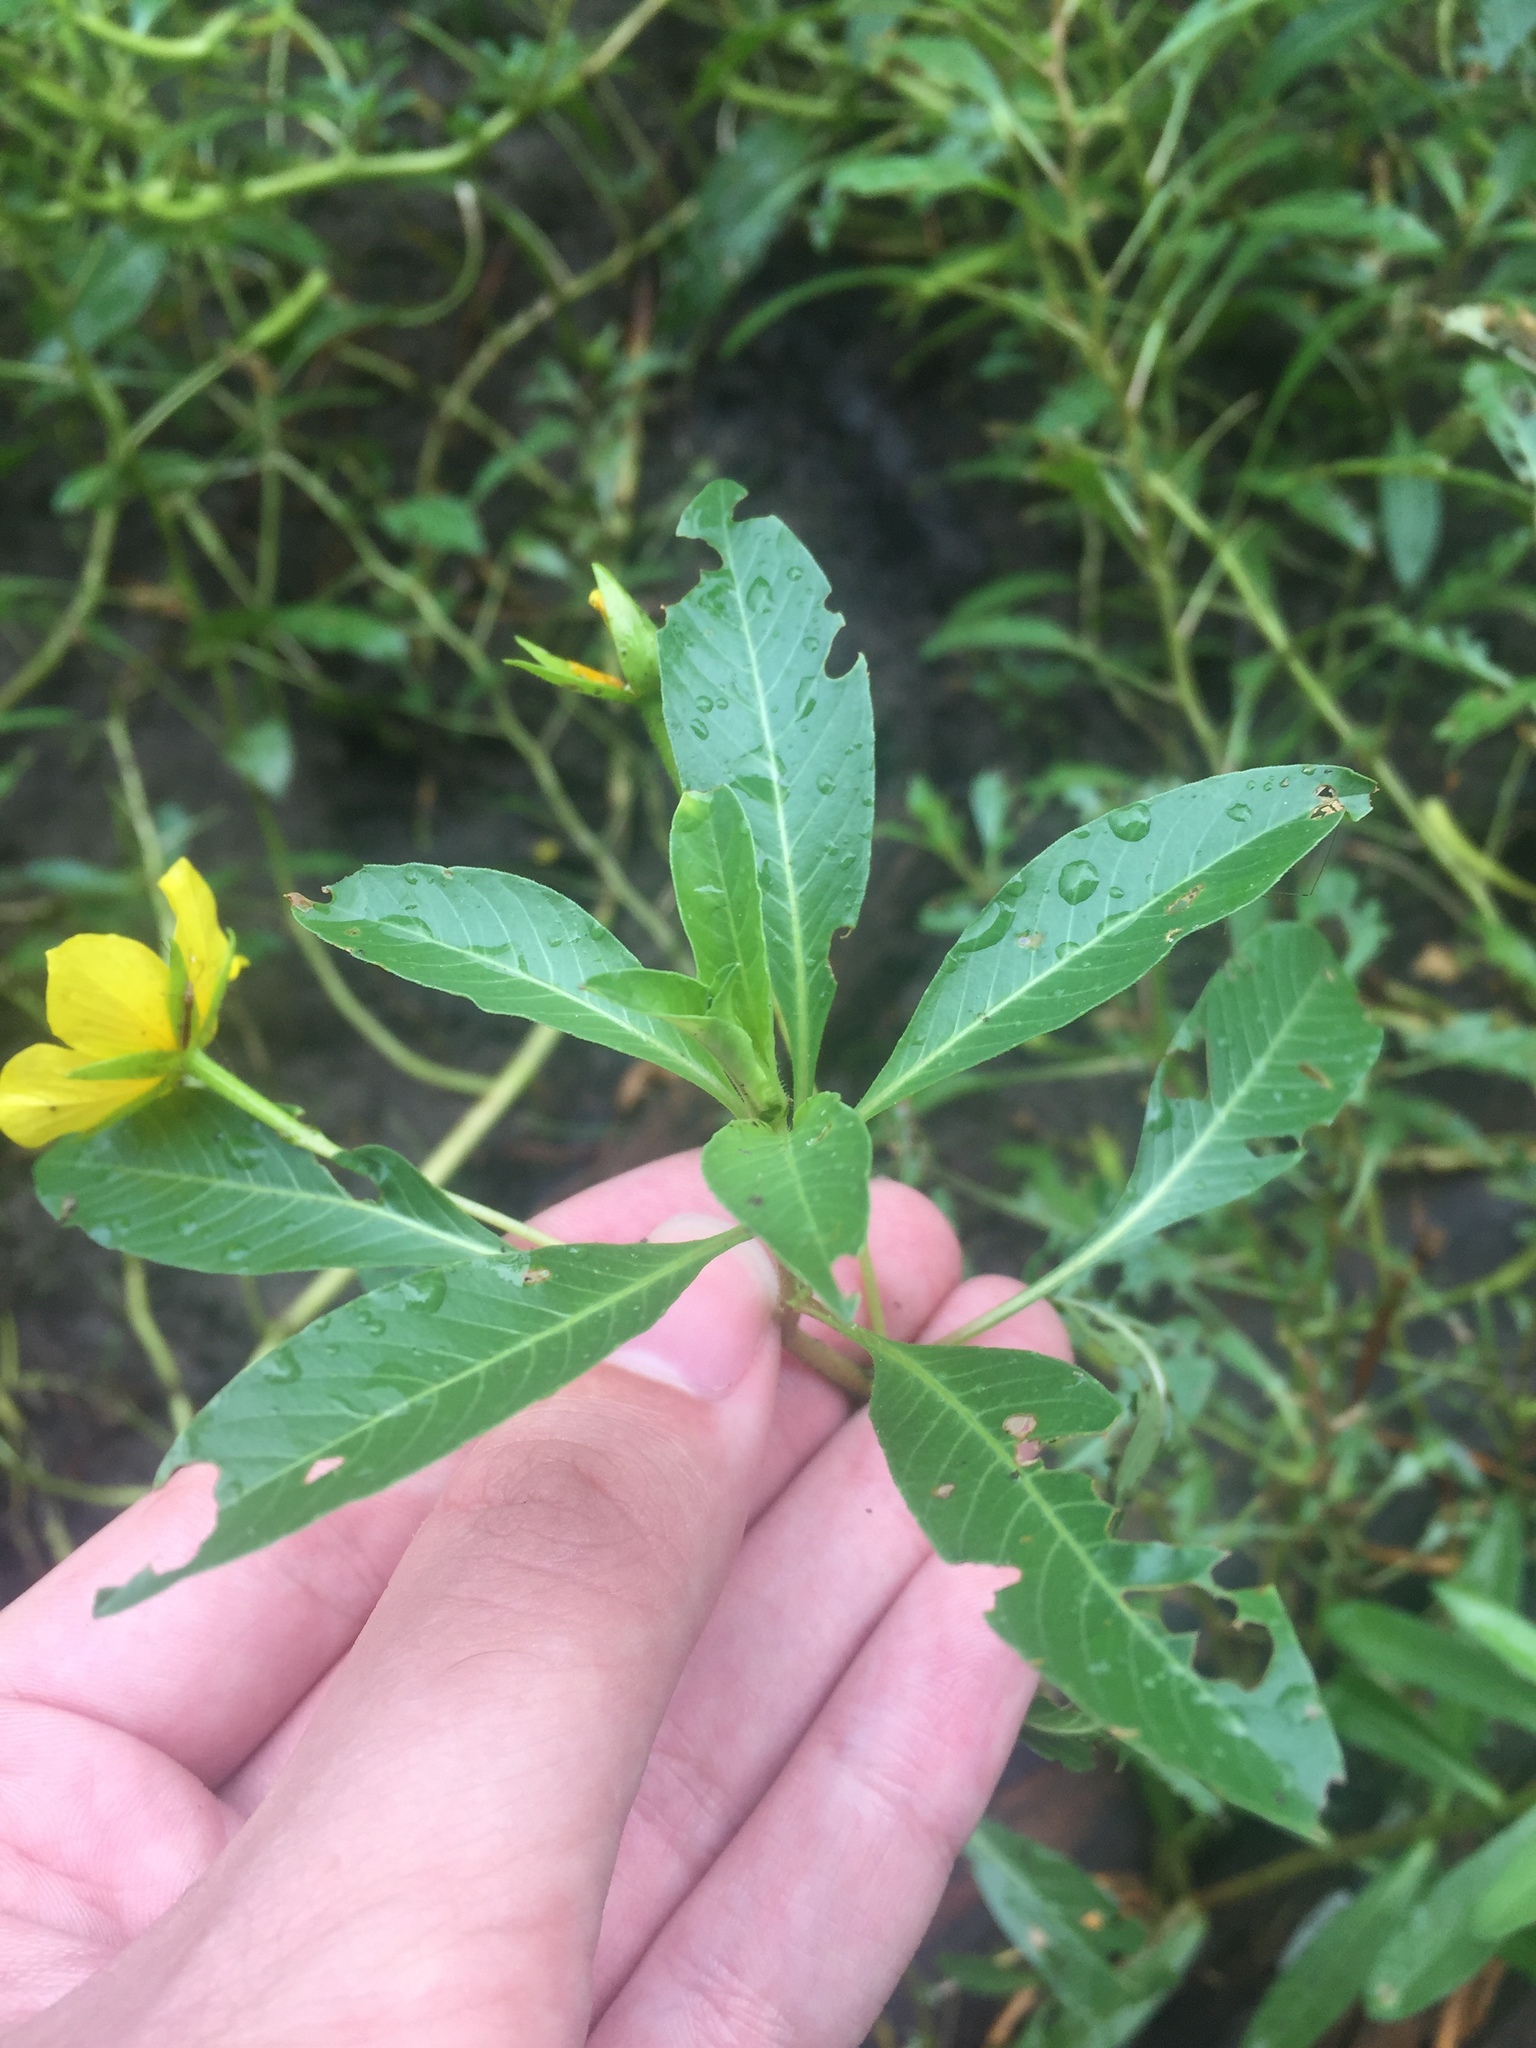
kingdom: Plantae
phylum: Tracheophyta
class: Magnoliopsida
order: Myrtales
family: Onagraceae
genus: Ludwigia
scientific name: Ludwigia peploides
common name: Floating primrose-willow
